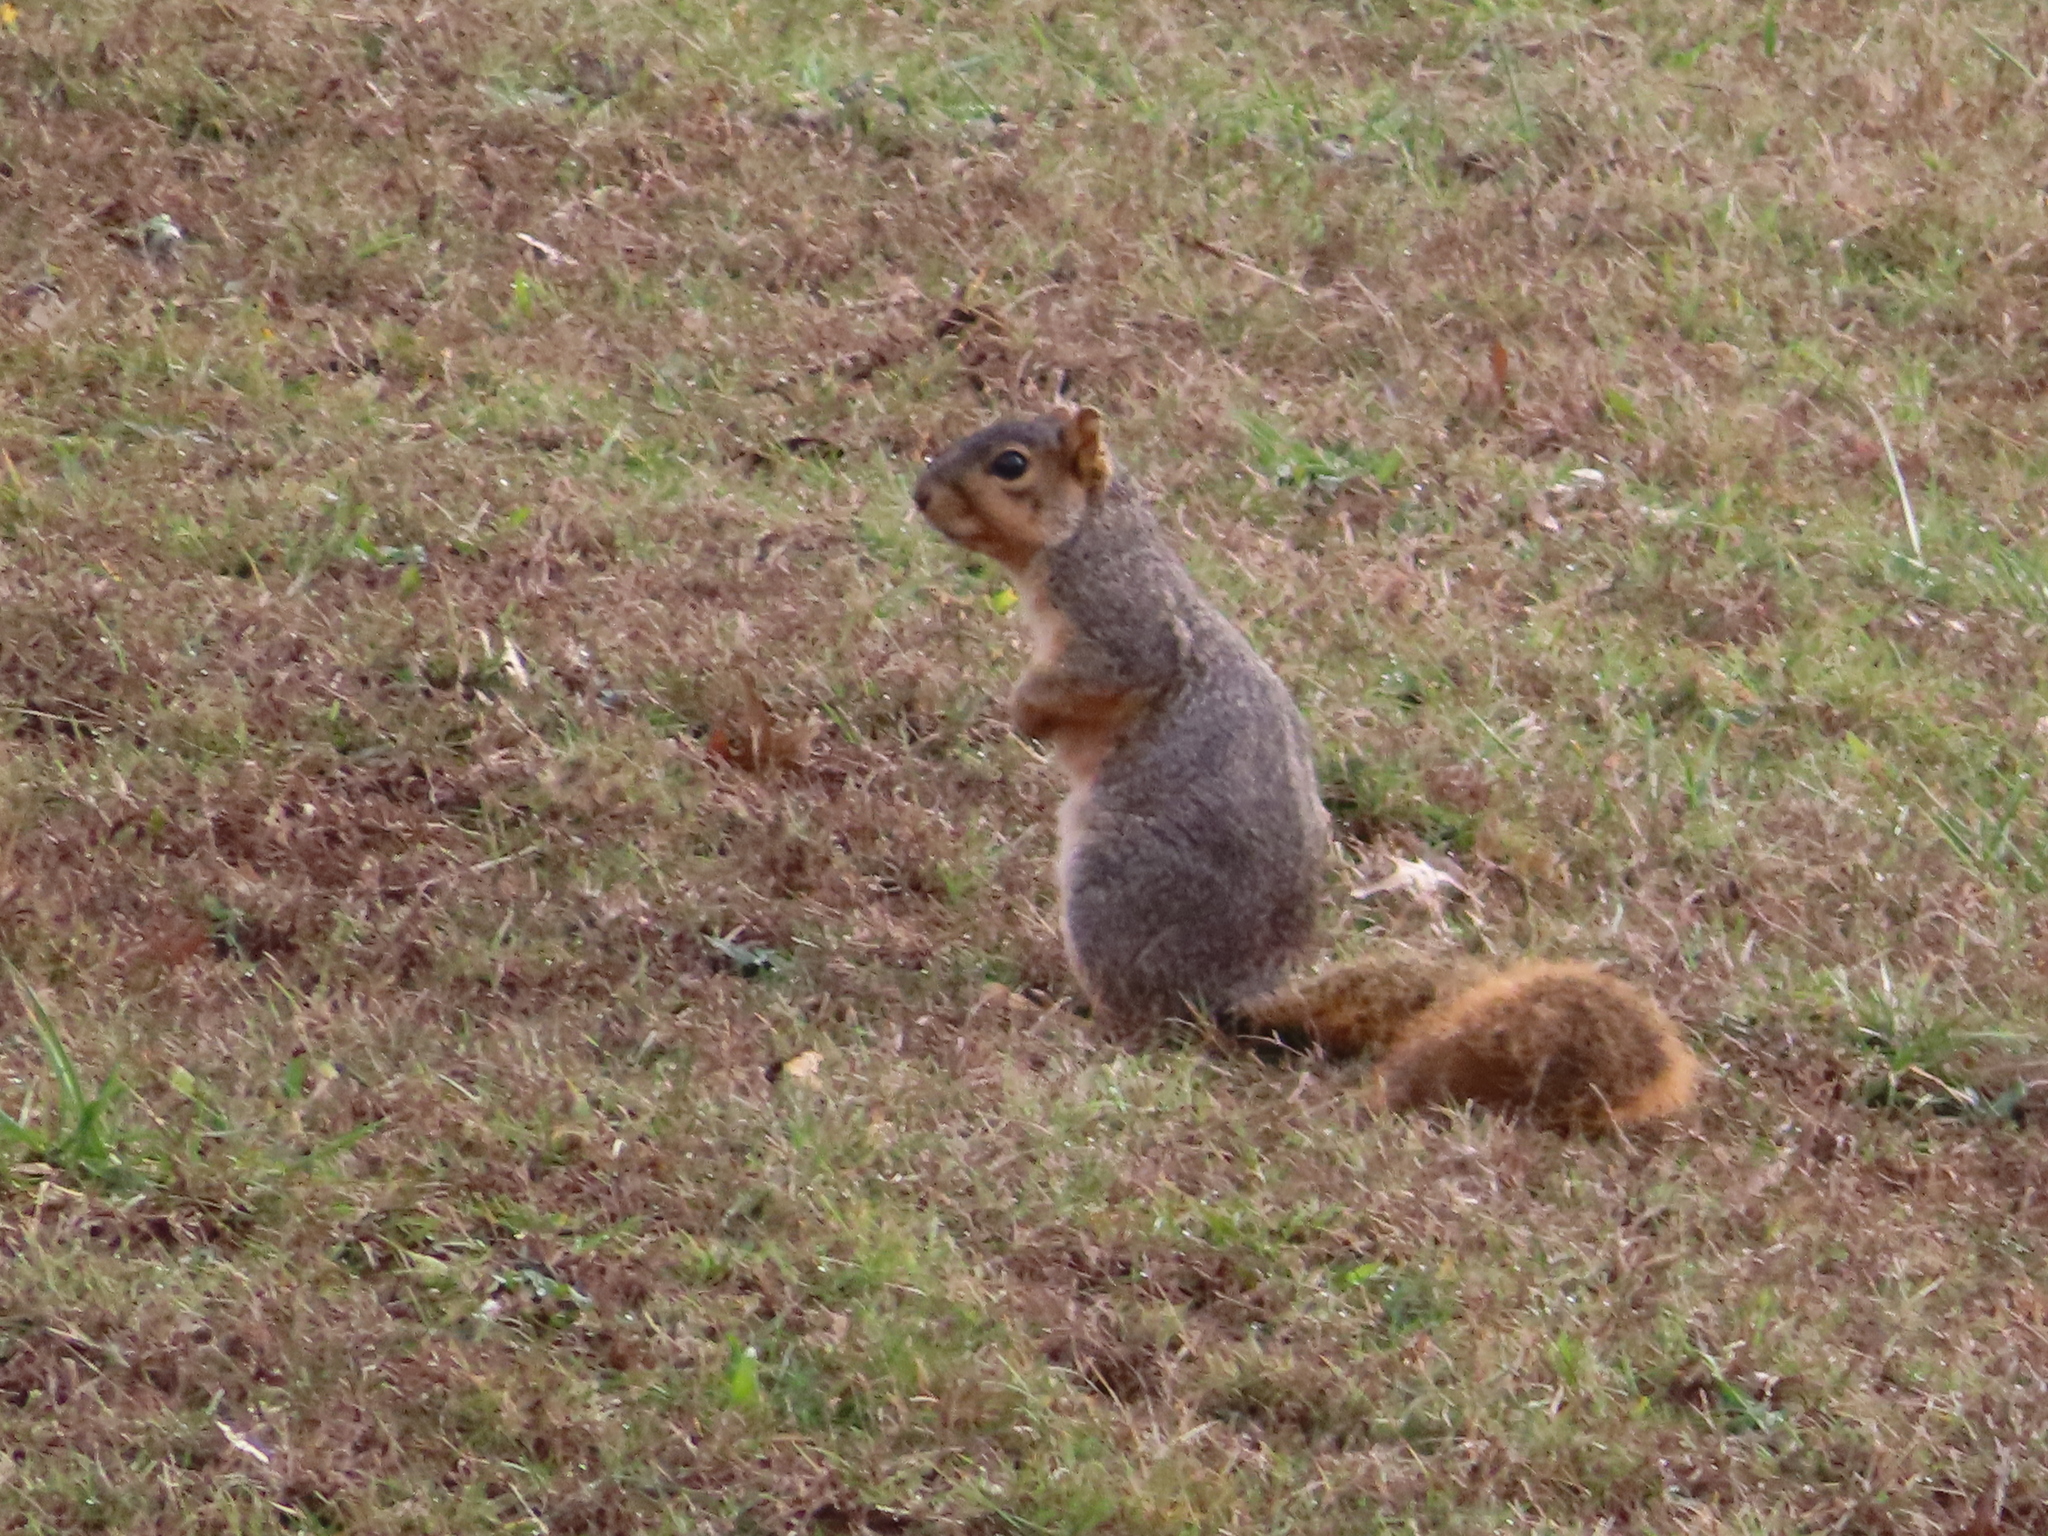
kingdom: Animalia
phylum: Chordata
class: Mammalia
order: Rodentia
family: Sciuridae
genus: Sciurus
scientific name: Sciurus niger
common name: Fox squirrel
